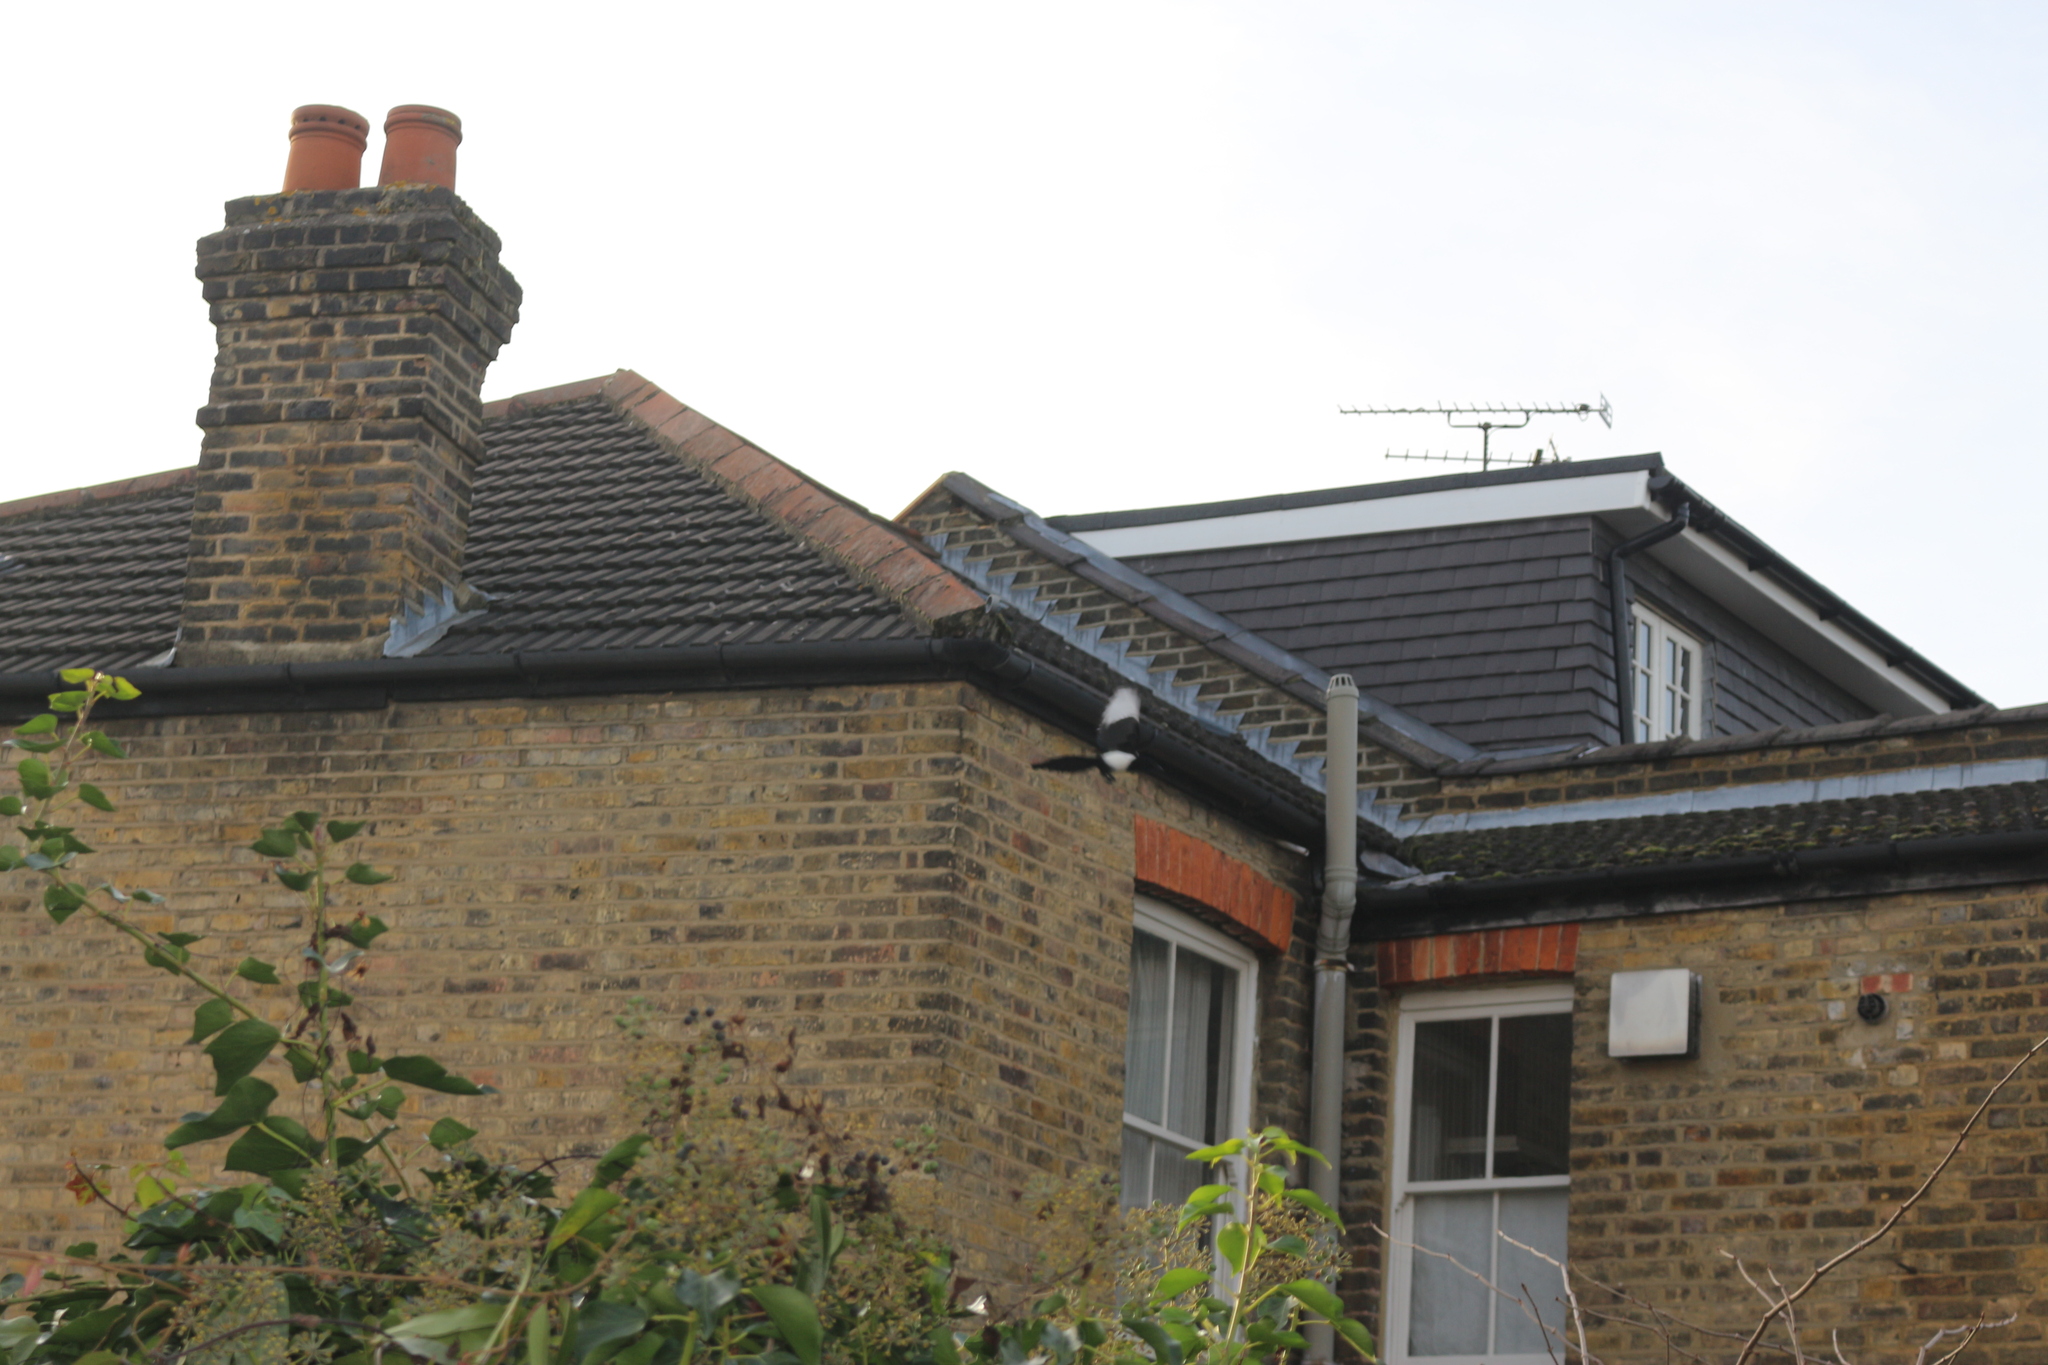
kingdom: Animalia
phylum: Chordata
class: Aves
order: Passeriformes
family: Corvidae
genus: Pica
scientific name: Pica pica
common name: Eurasian magpie
